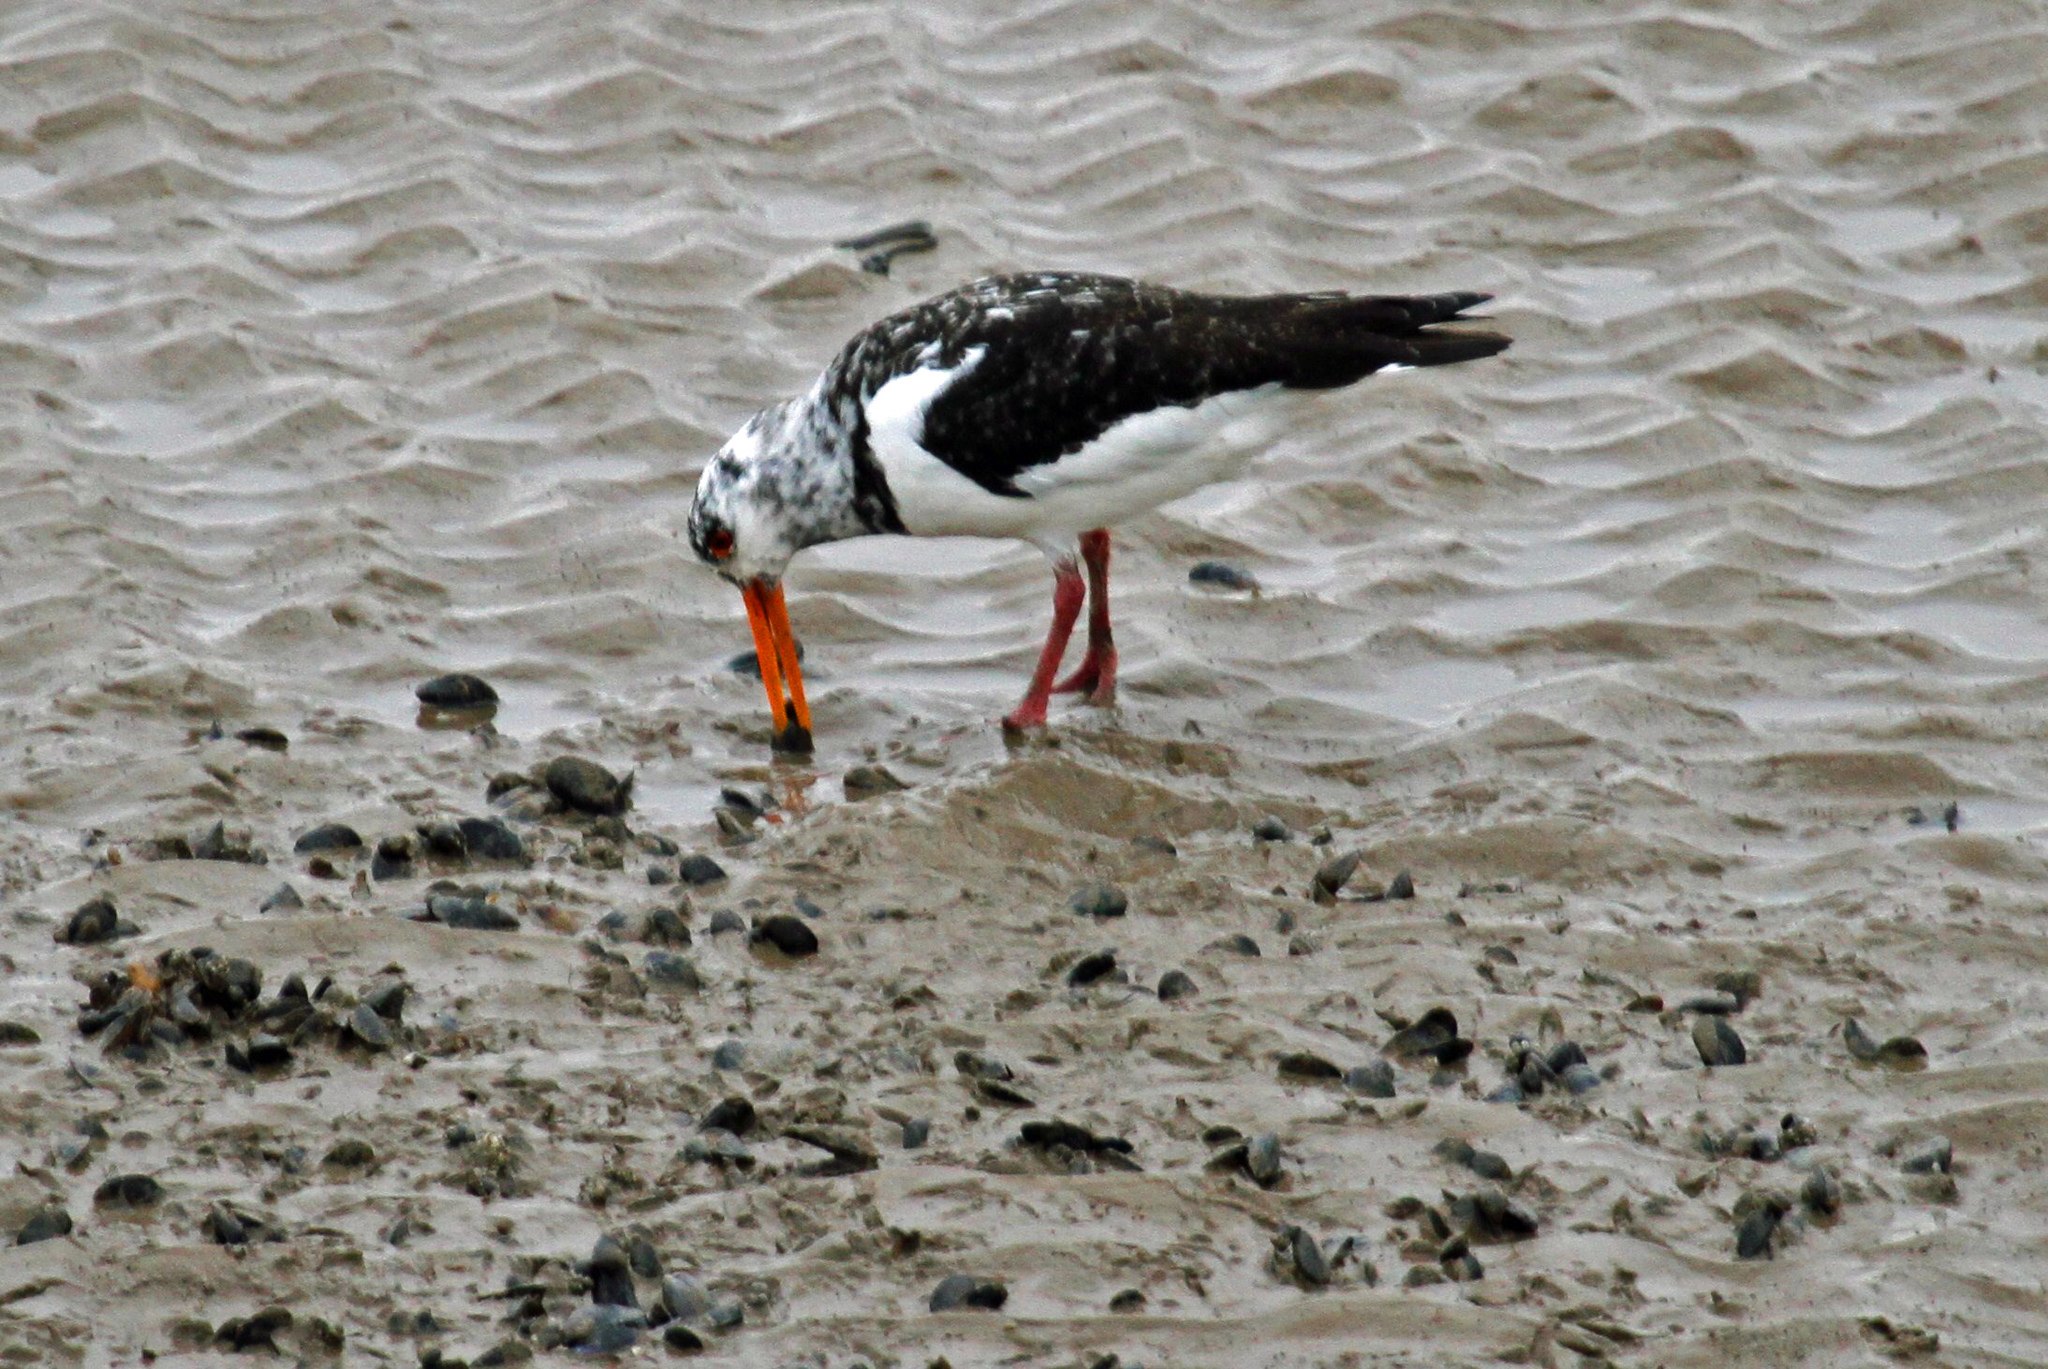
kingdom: Animalia
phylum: Chordata
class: Aves
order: Charadriiformes
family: Haematopodidae
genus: Haematopus
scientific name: Haematopus ostralegus
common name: Eurasian oystercatcher
